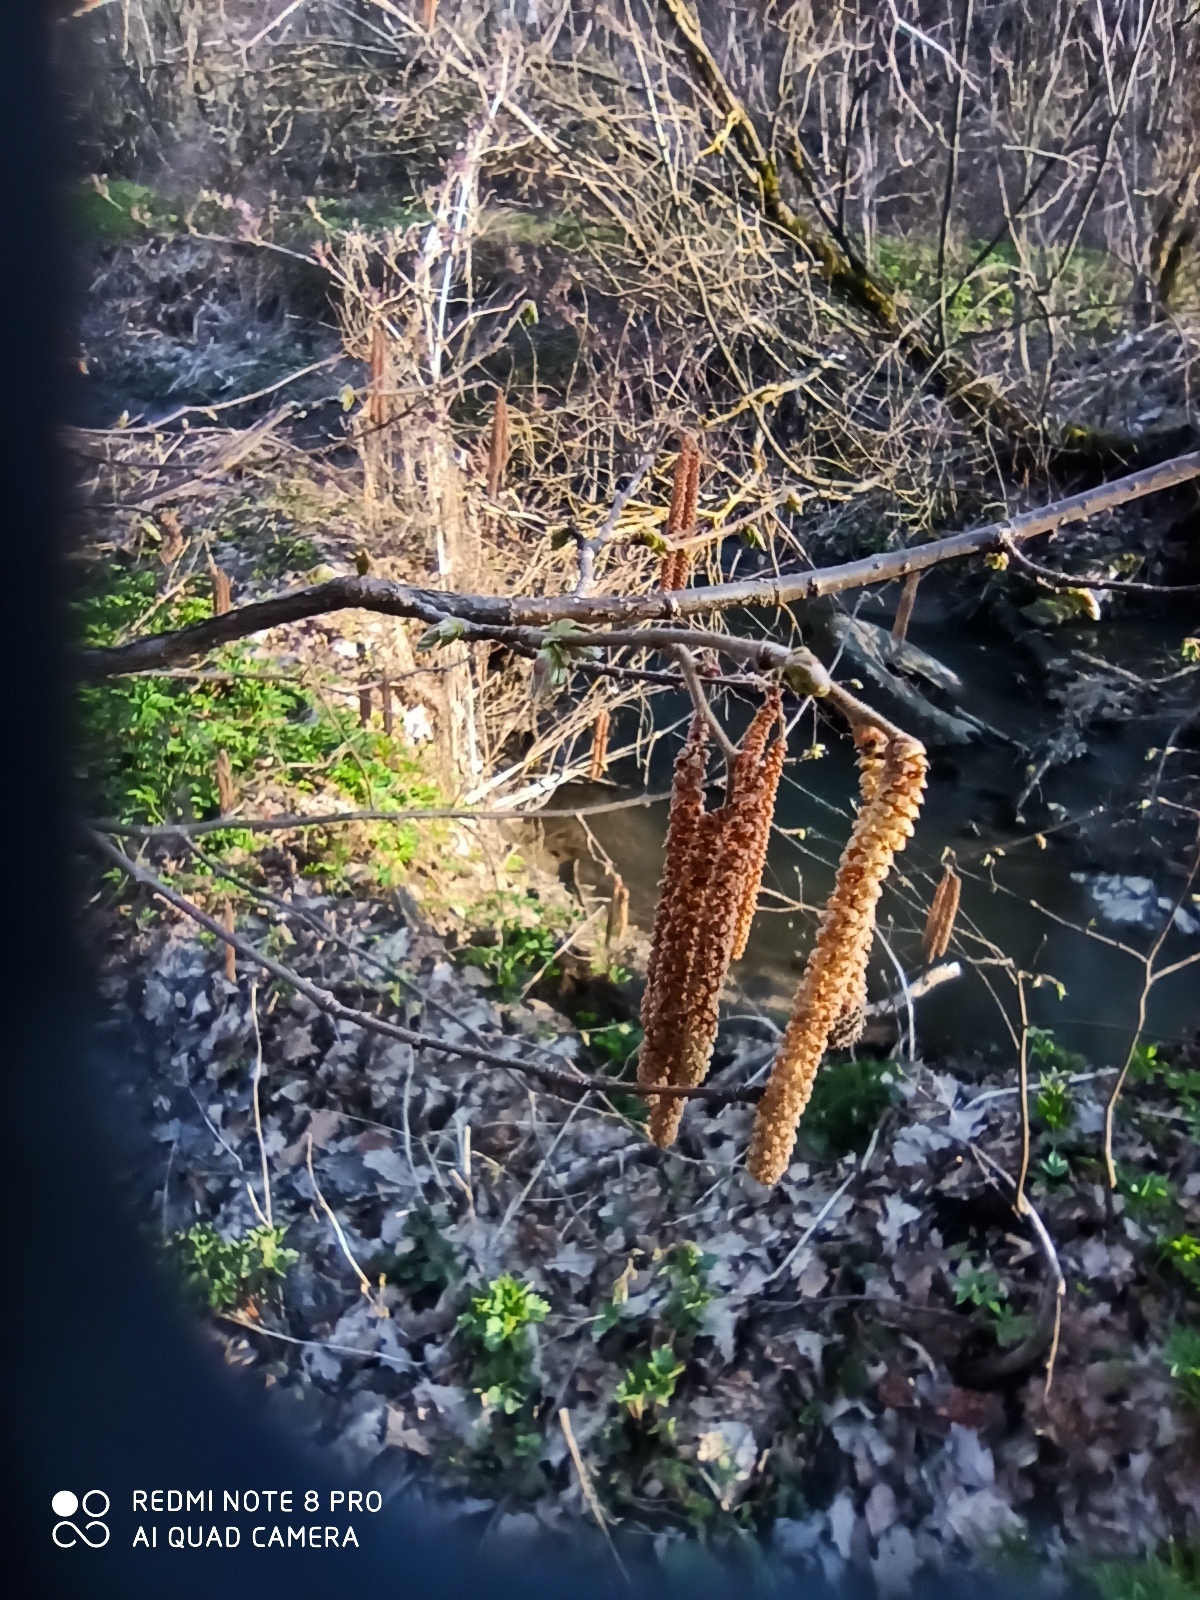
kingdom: Plantae
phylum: Tracheophyta
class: Magnoliopsida
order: Fagales
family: Betulaceae
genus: Corylus
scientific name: Corylus avellana
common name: European hazel
